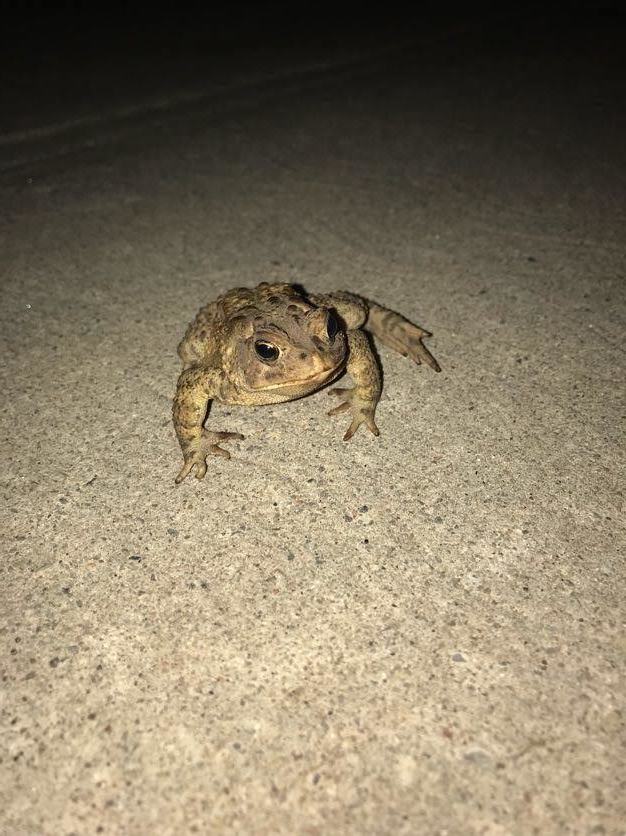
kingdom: Animalia
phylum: Chordata
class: Amphibia
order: Anura
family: Bufonidae
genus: Anaxyrus
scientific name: Anaxyrus americanus
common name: American toad
